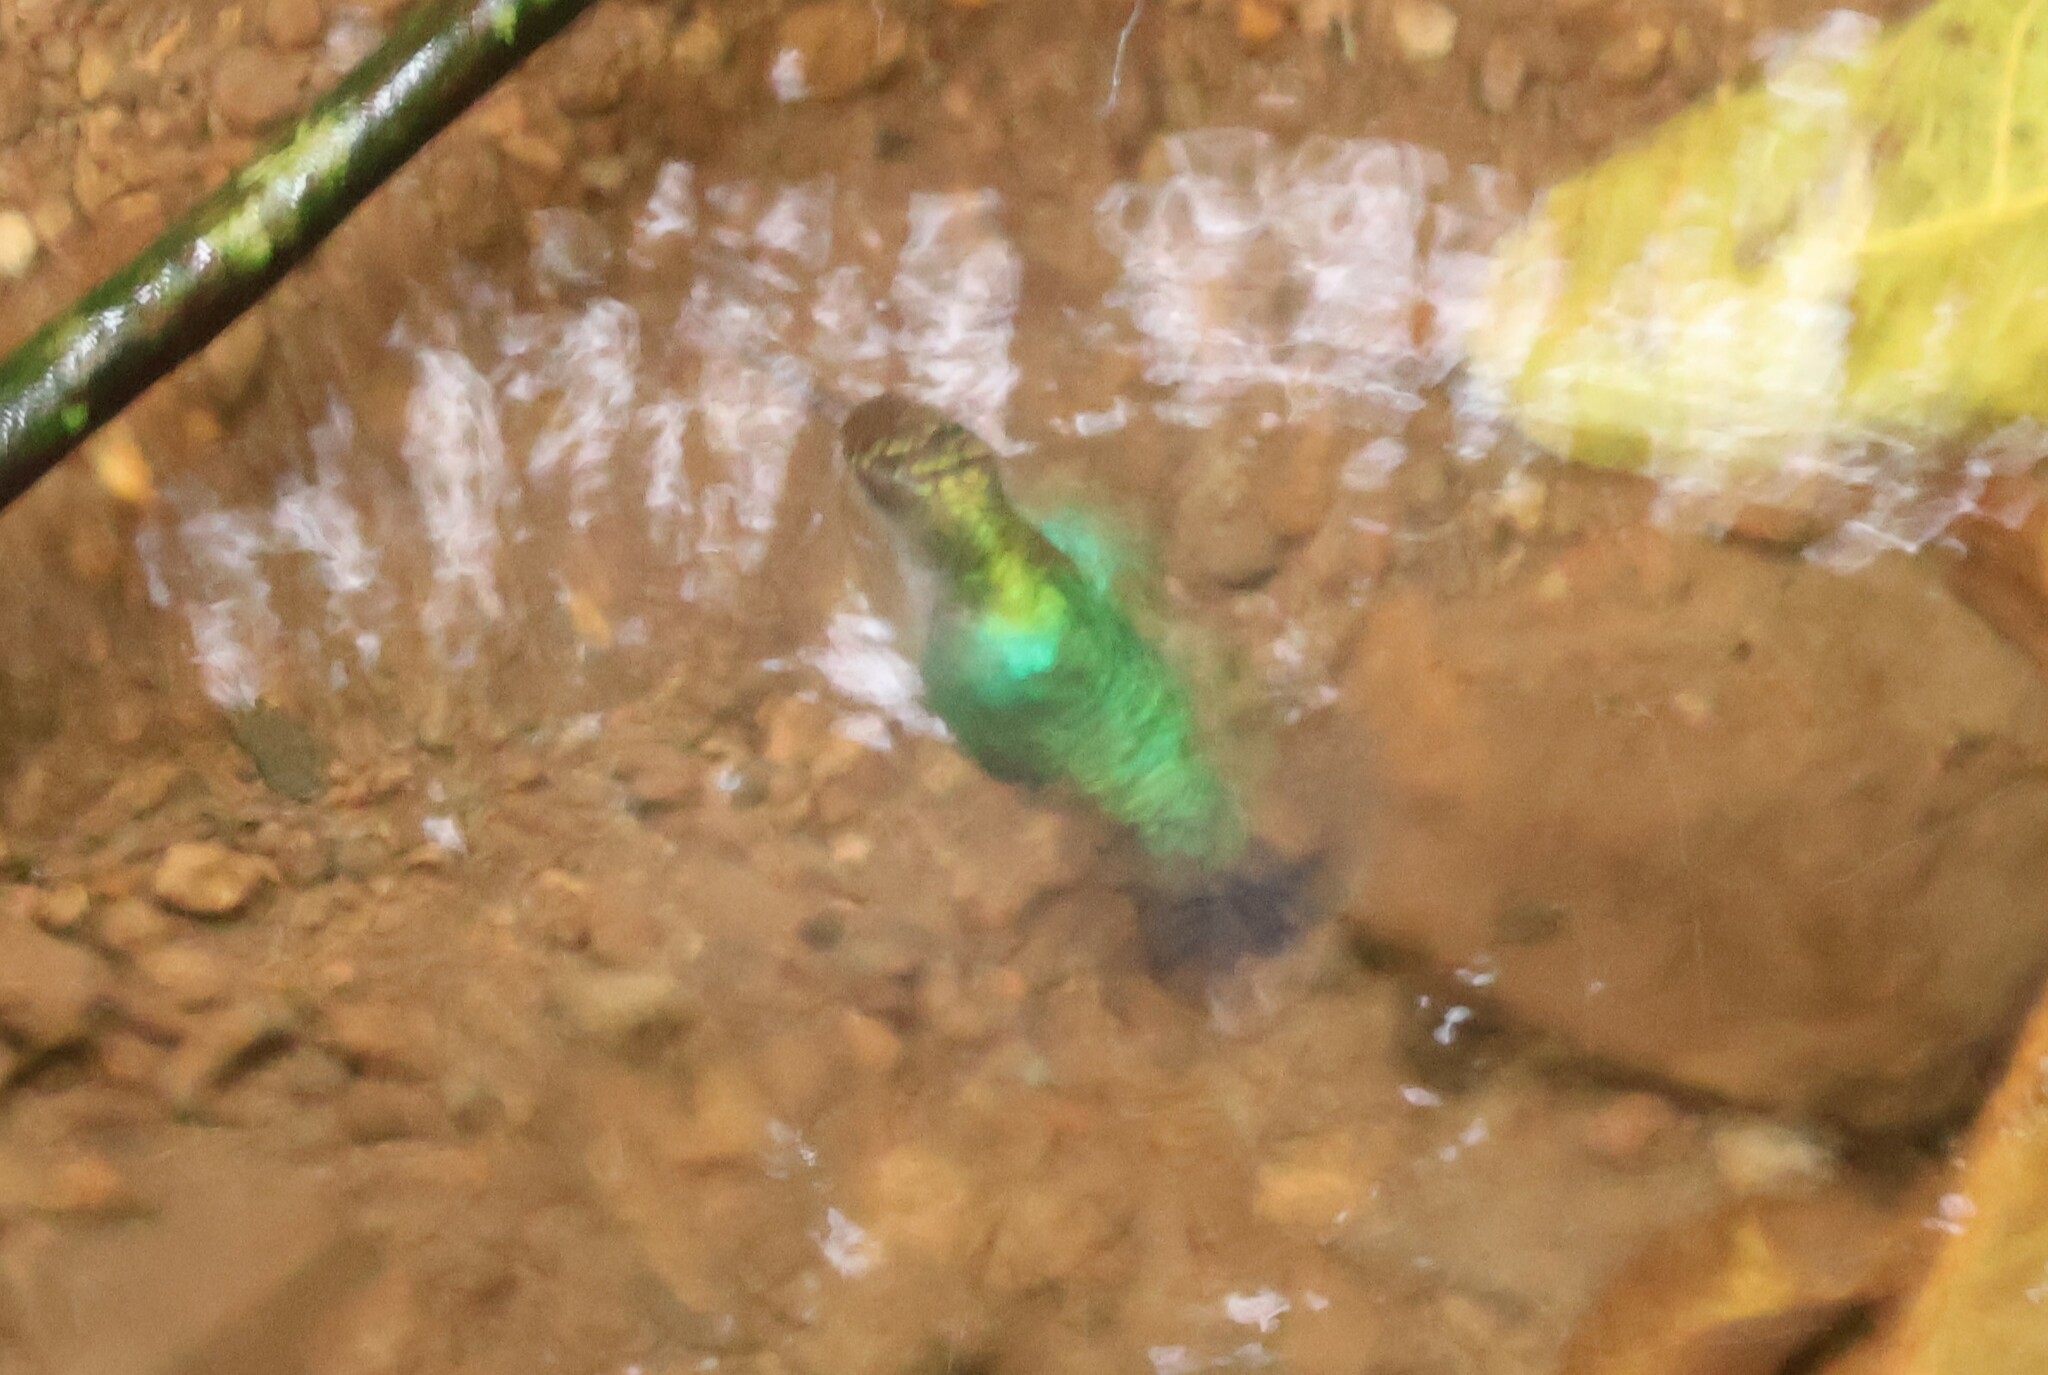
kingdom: Animalia
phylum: Chordata
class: Aves
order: Apodiformes
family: Trochilidae
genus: Thalurania
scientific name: Thalurania colombica
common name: Crowned woodnymph
